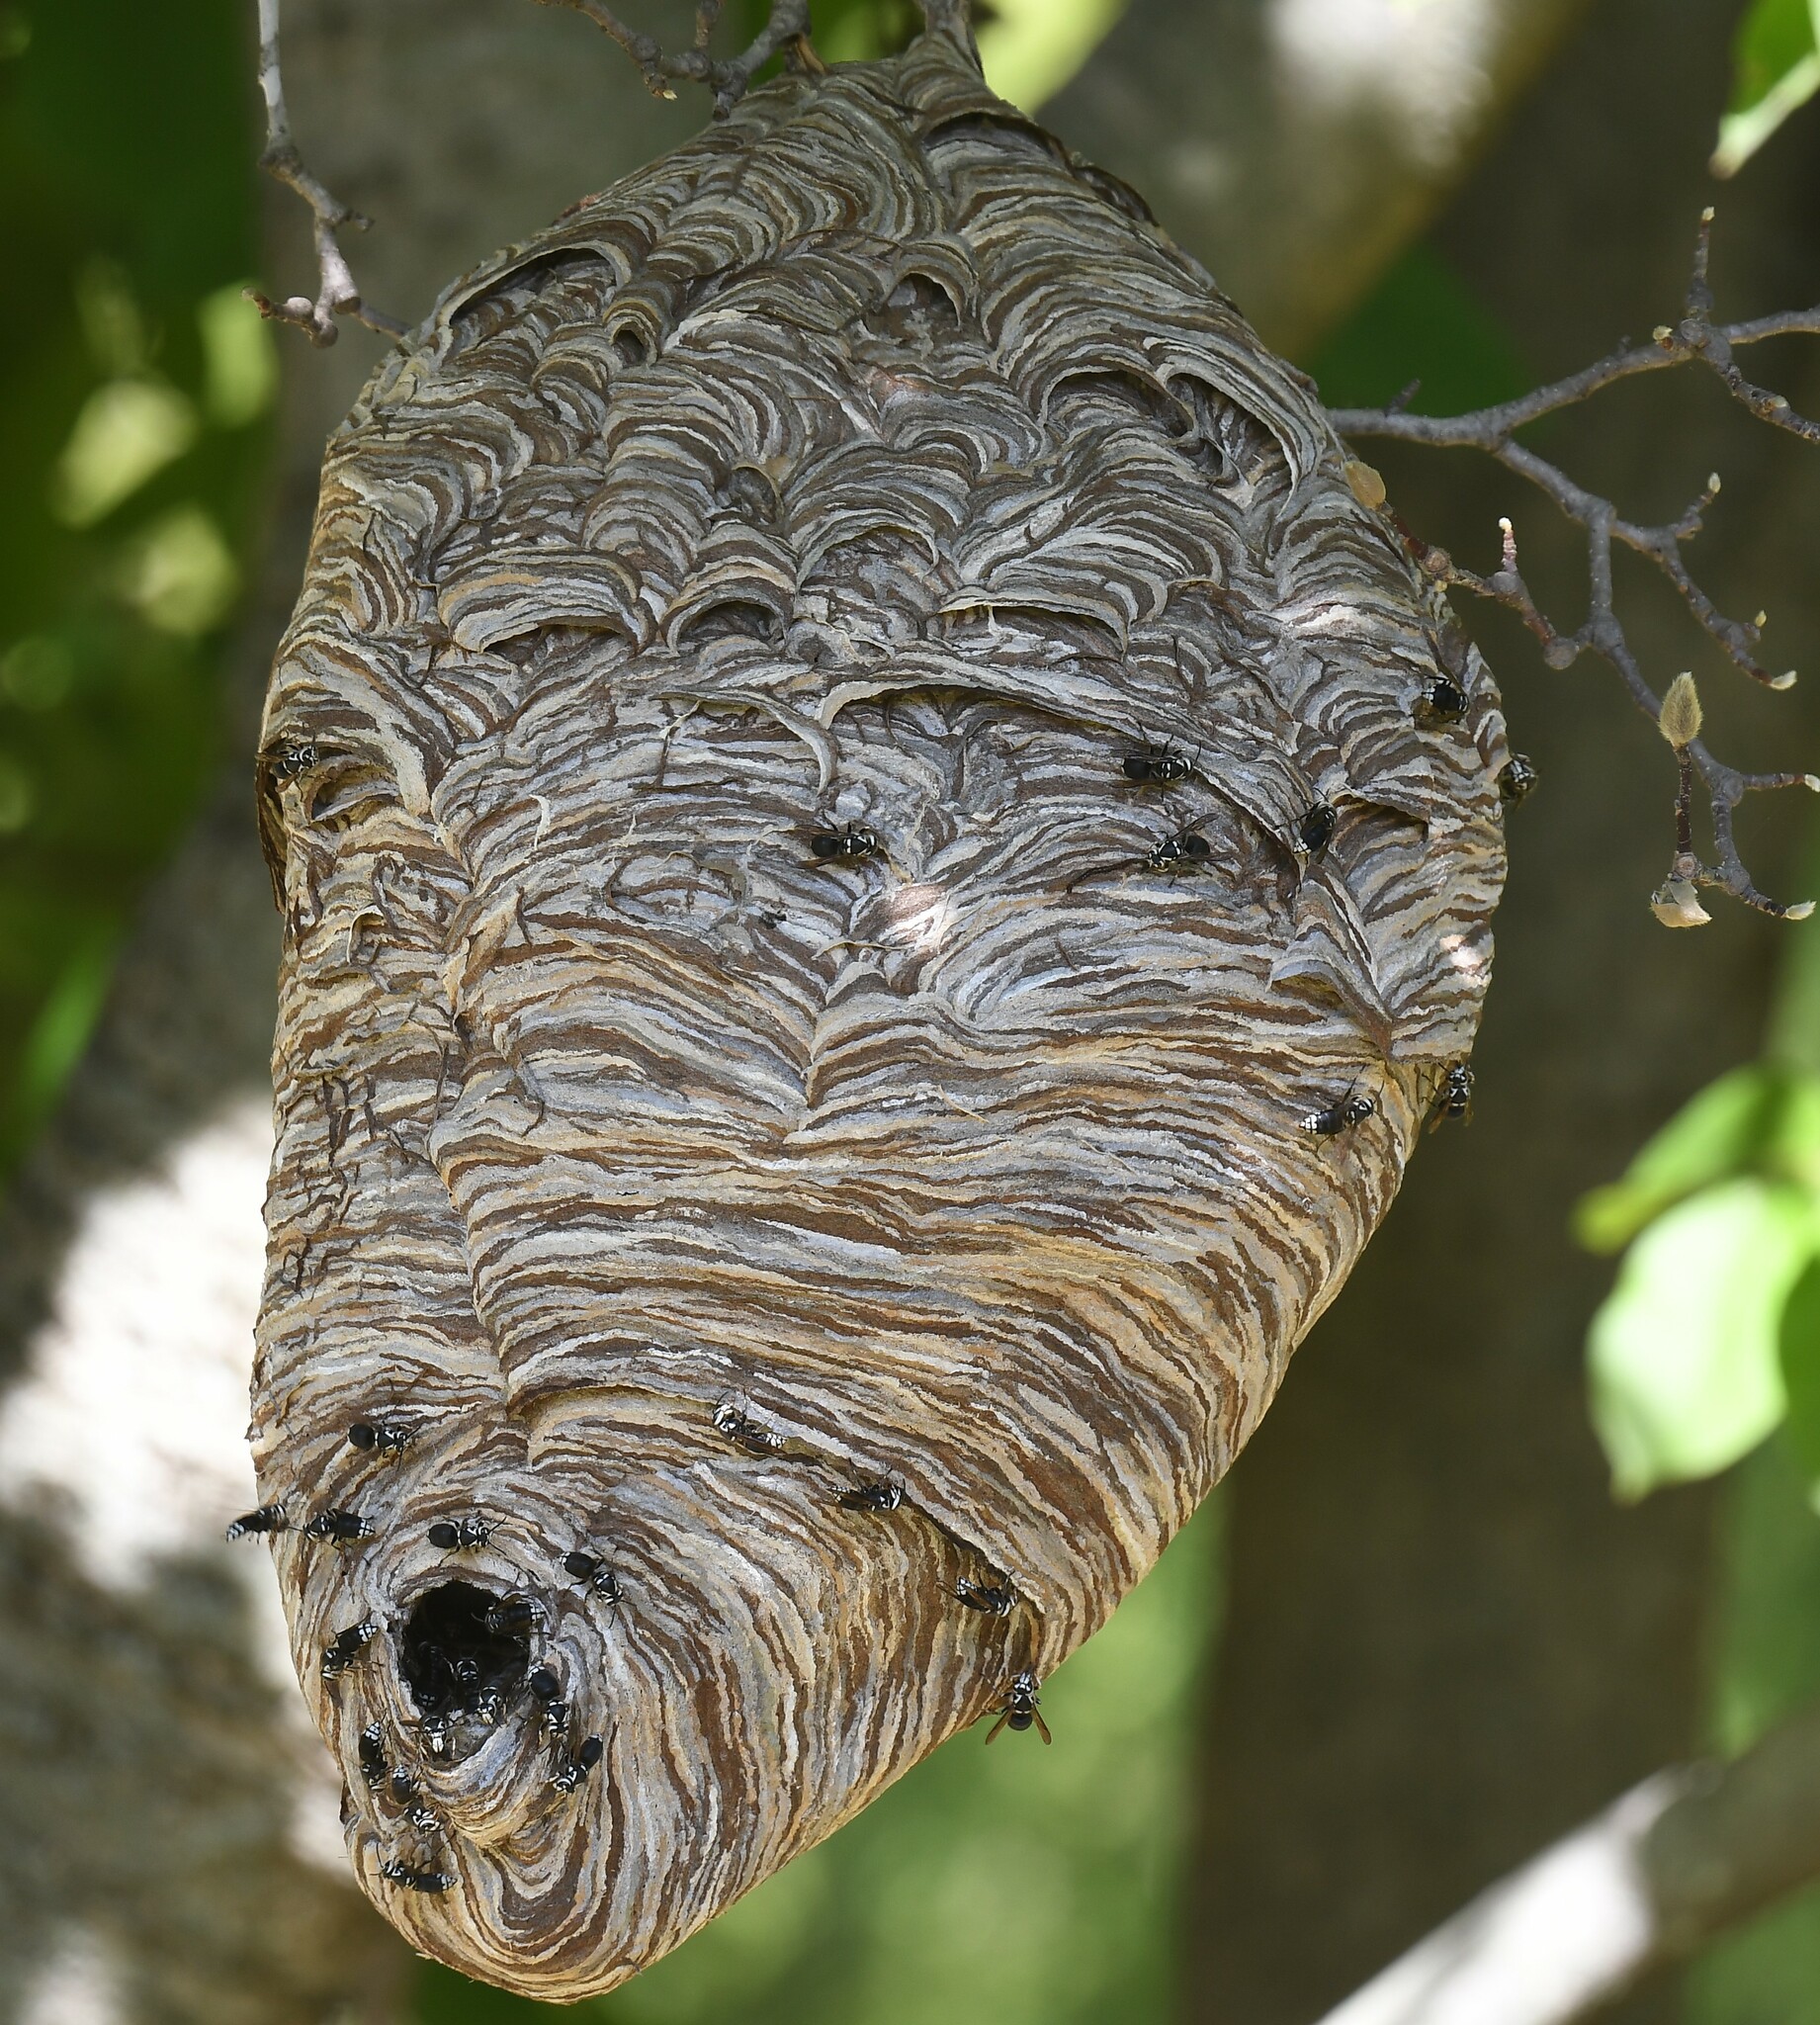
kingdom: Animalia
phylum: Arthropoda
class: Insecta
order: Hymenoptera
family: Vespidae
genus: Dolichovespula
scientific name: Dolichovespula maculata
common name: Bald-faced hornet
